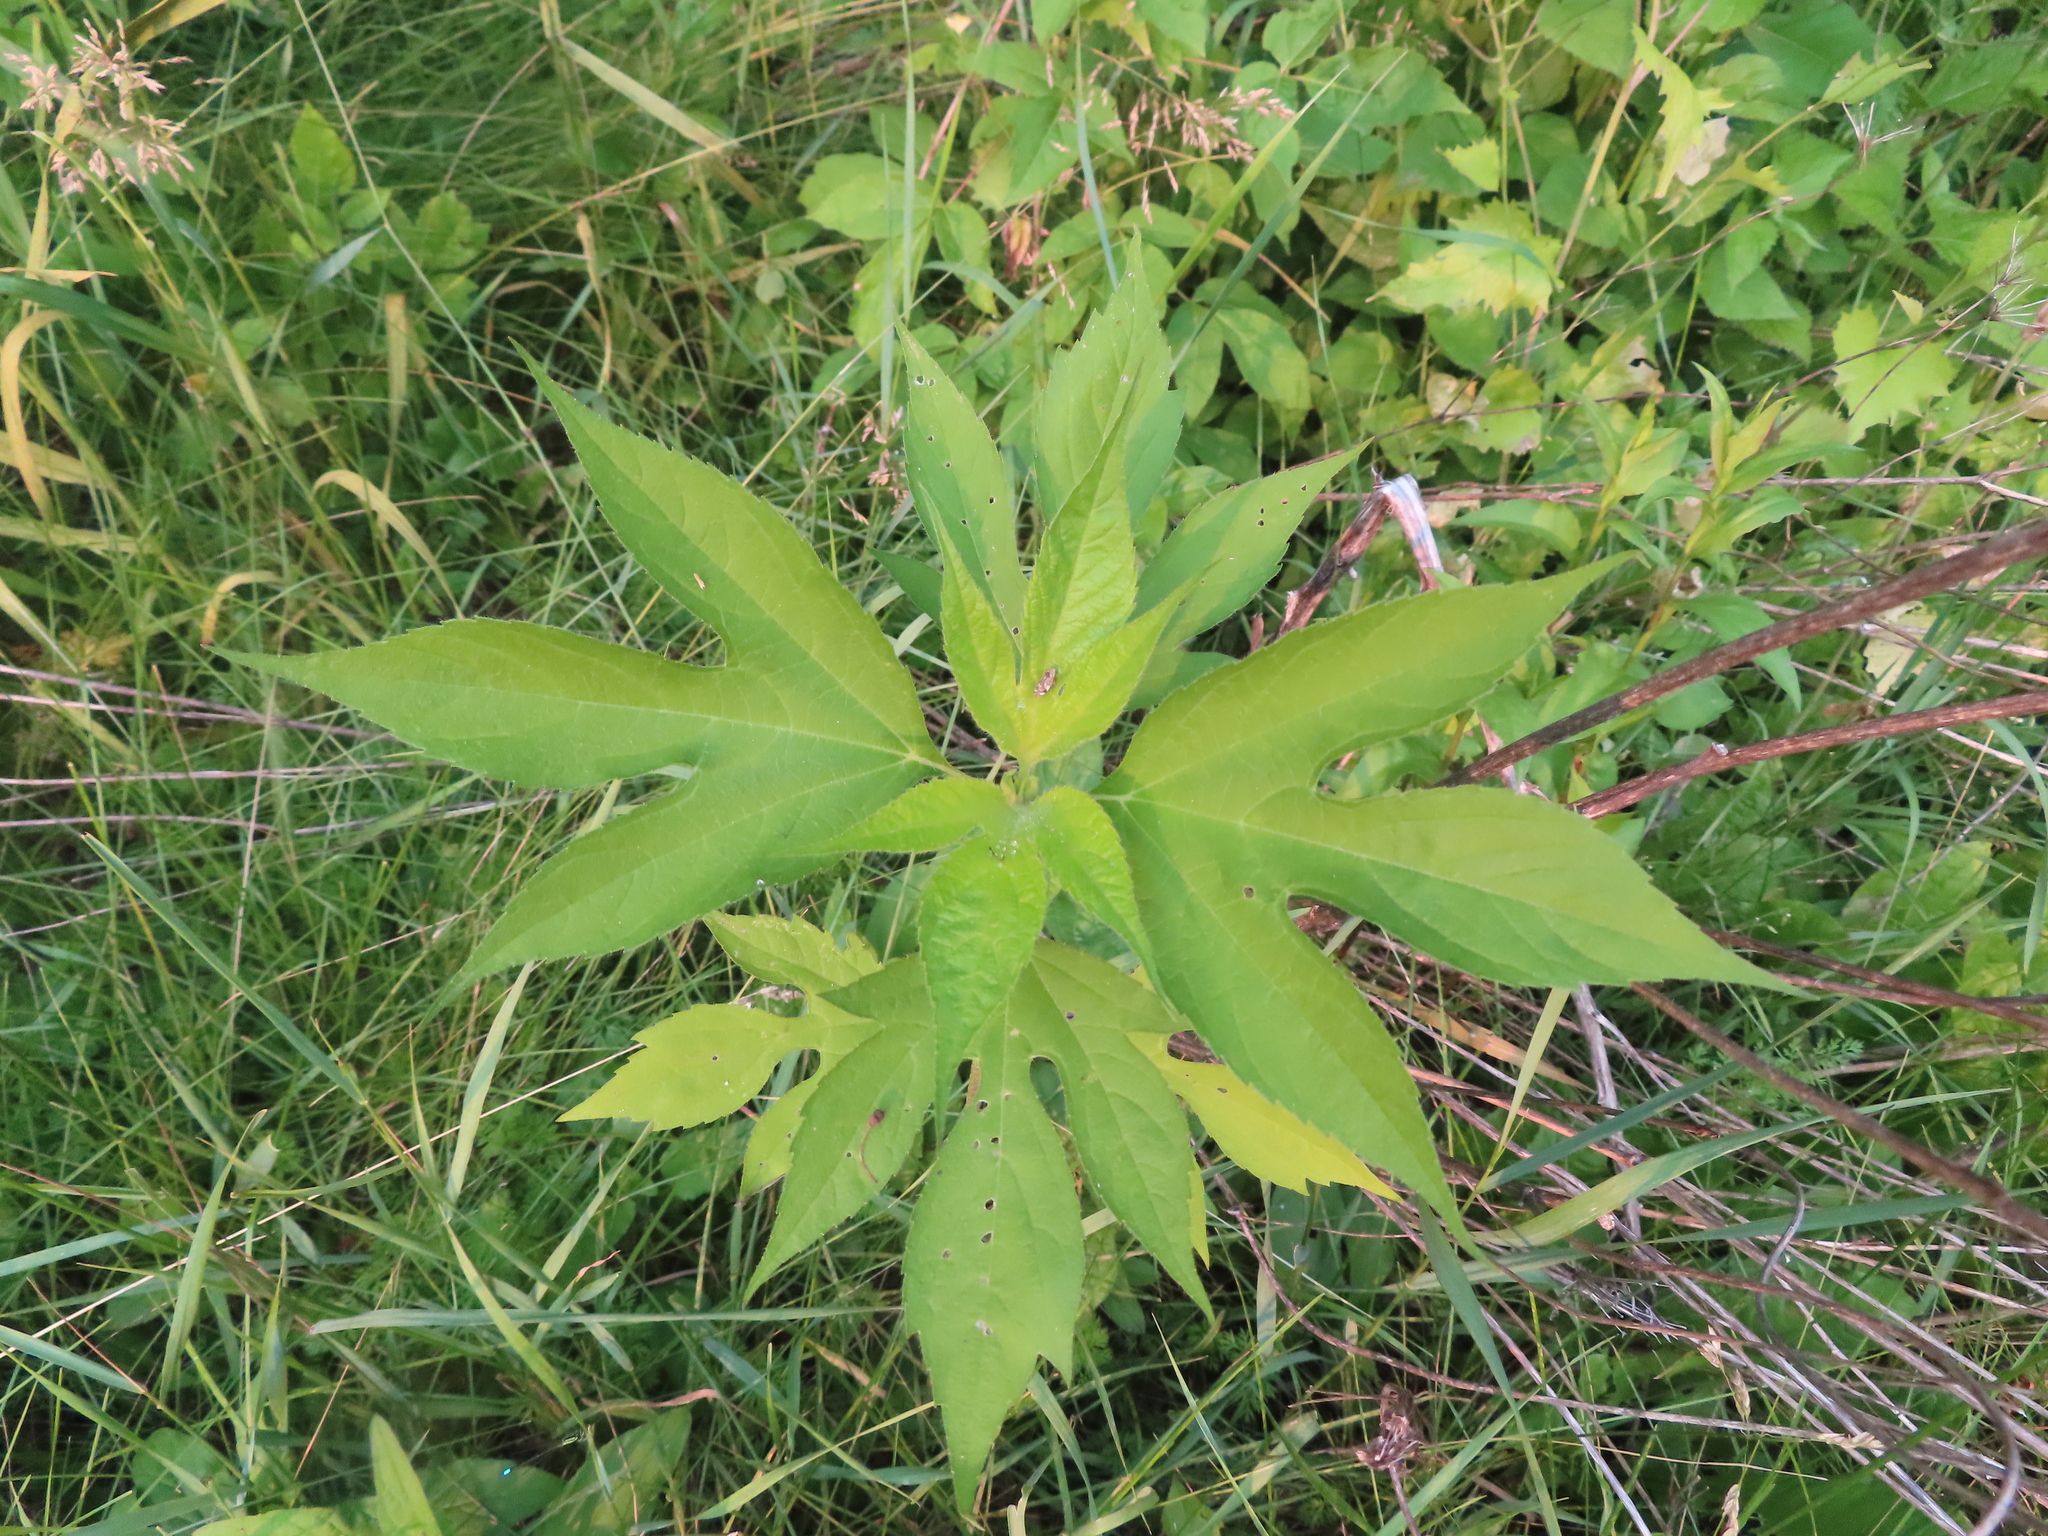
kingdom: Plantae
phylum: Tracheophyta
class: Magnoliopsida
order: Asterales
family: Asteraceae
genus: Ambrosia
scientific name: Ambrosia trifida
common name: Giant ragweed
